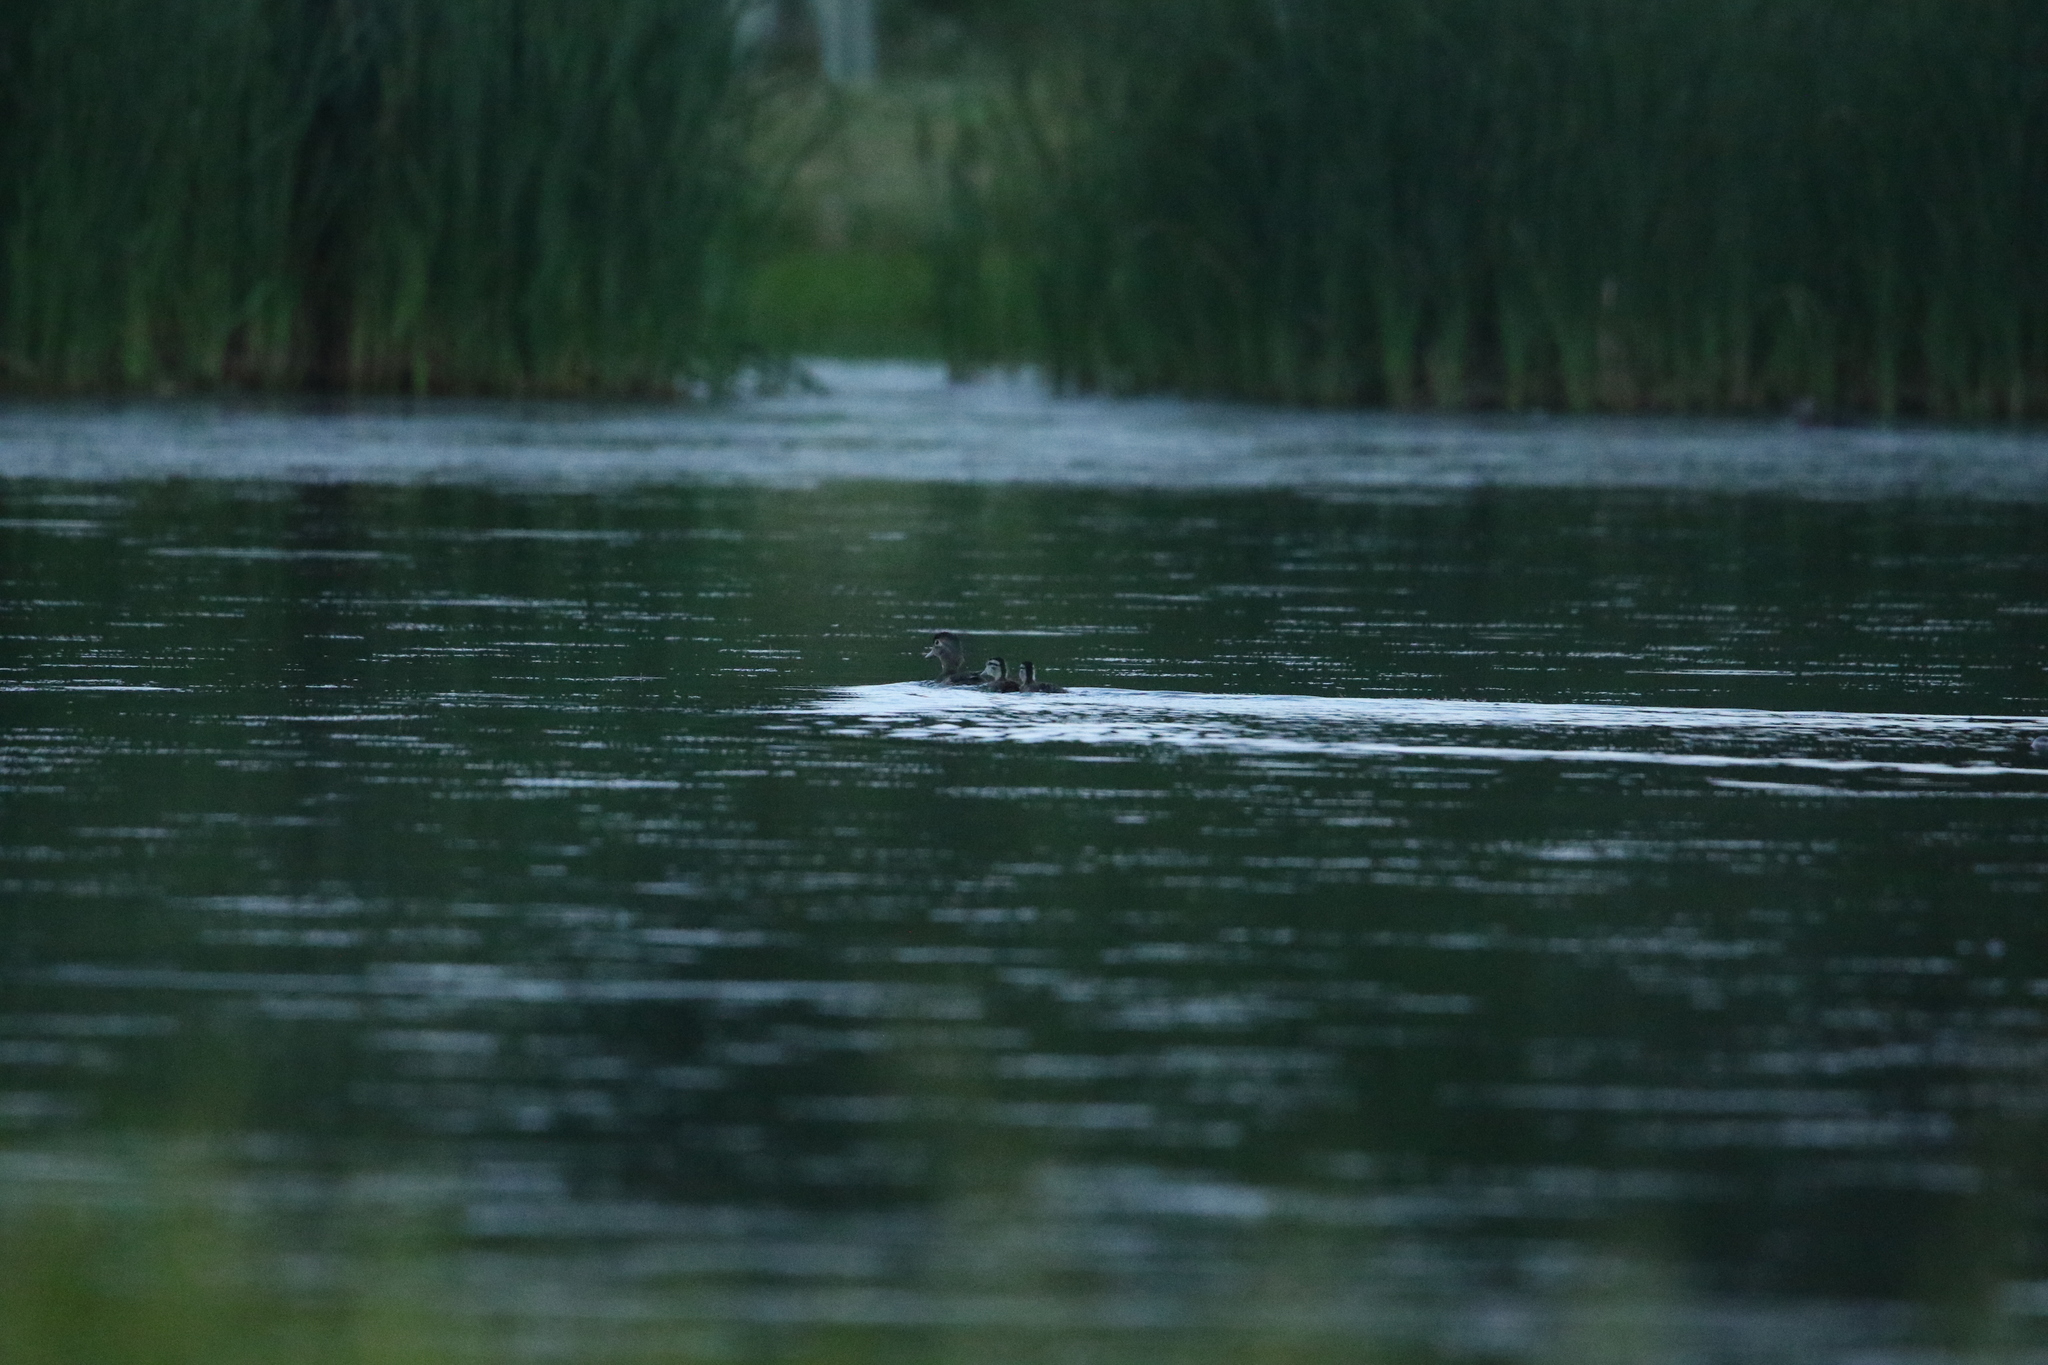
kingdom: Animalia
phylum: Chordata
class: Aves
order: Anseriformes
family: Anatidae
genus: Aix
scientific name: Aix sponsa
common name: Wood duck
